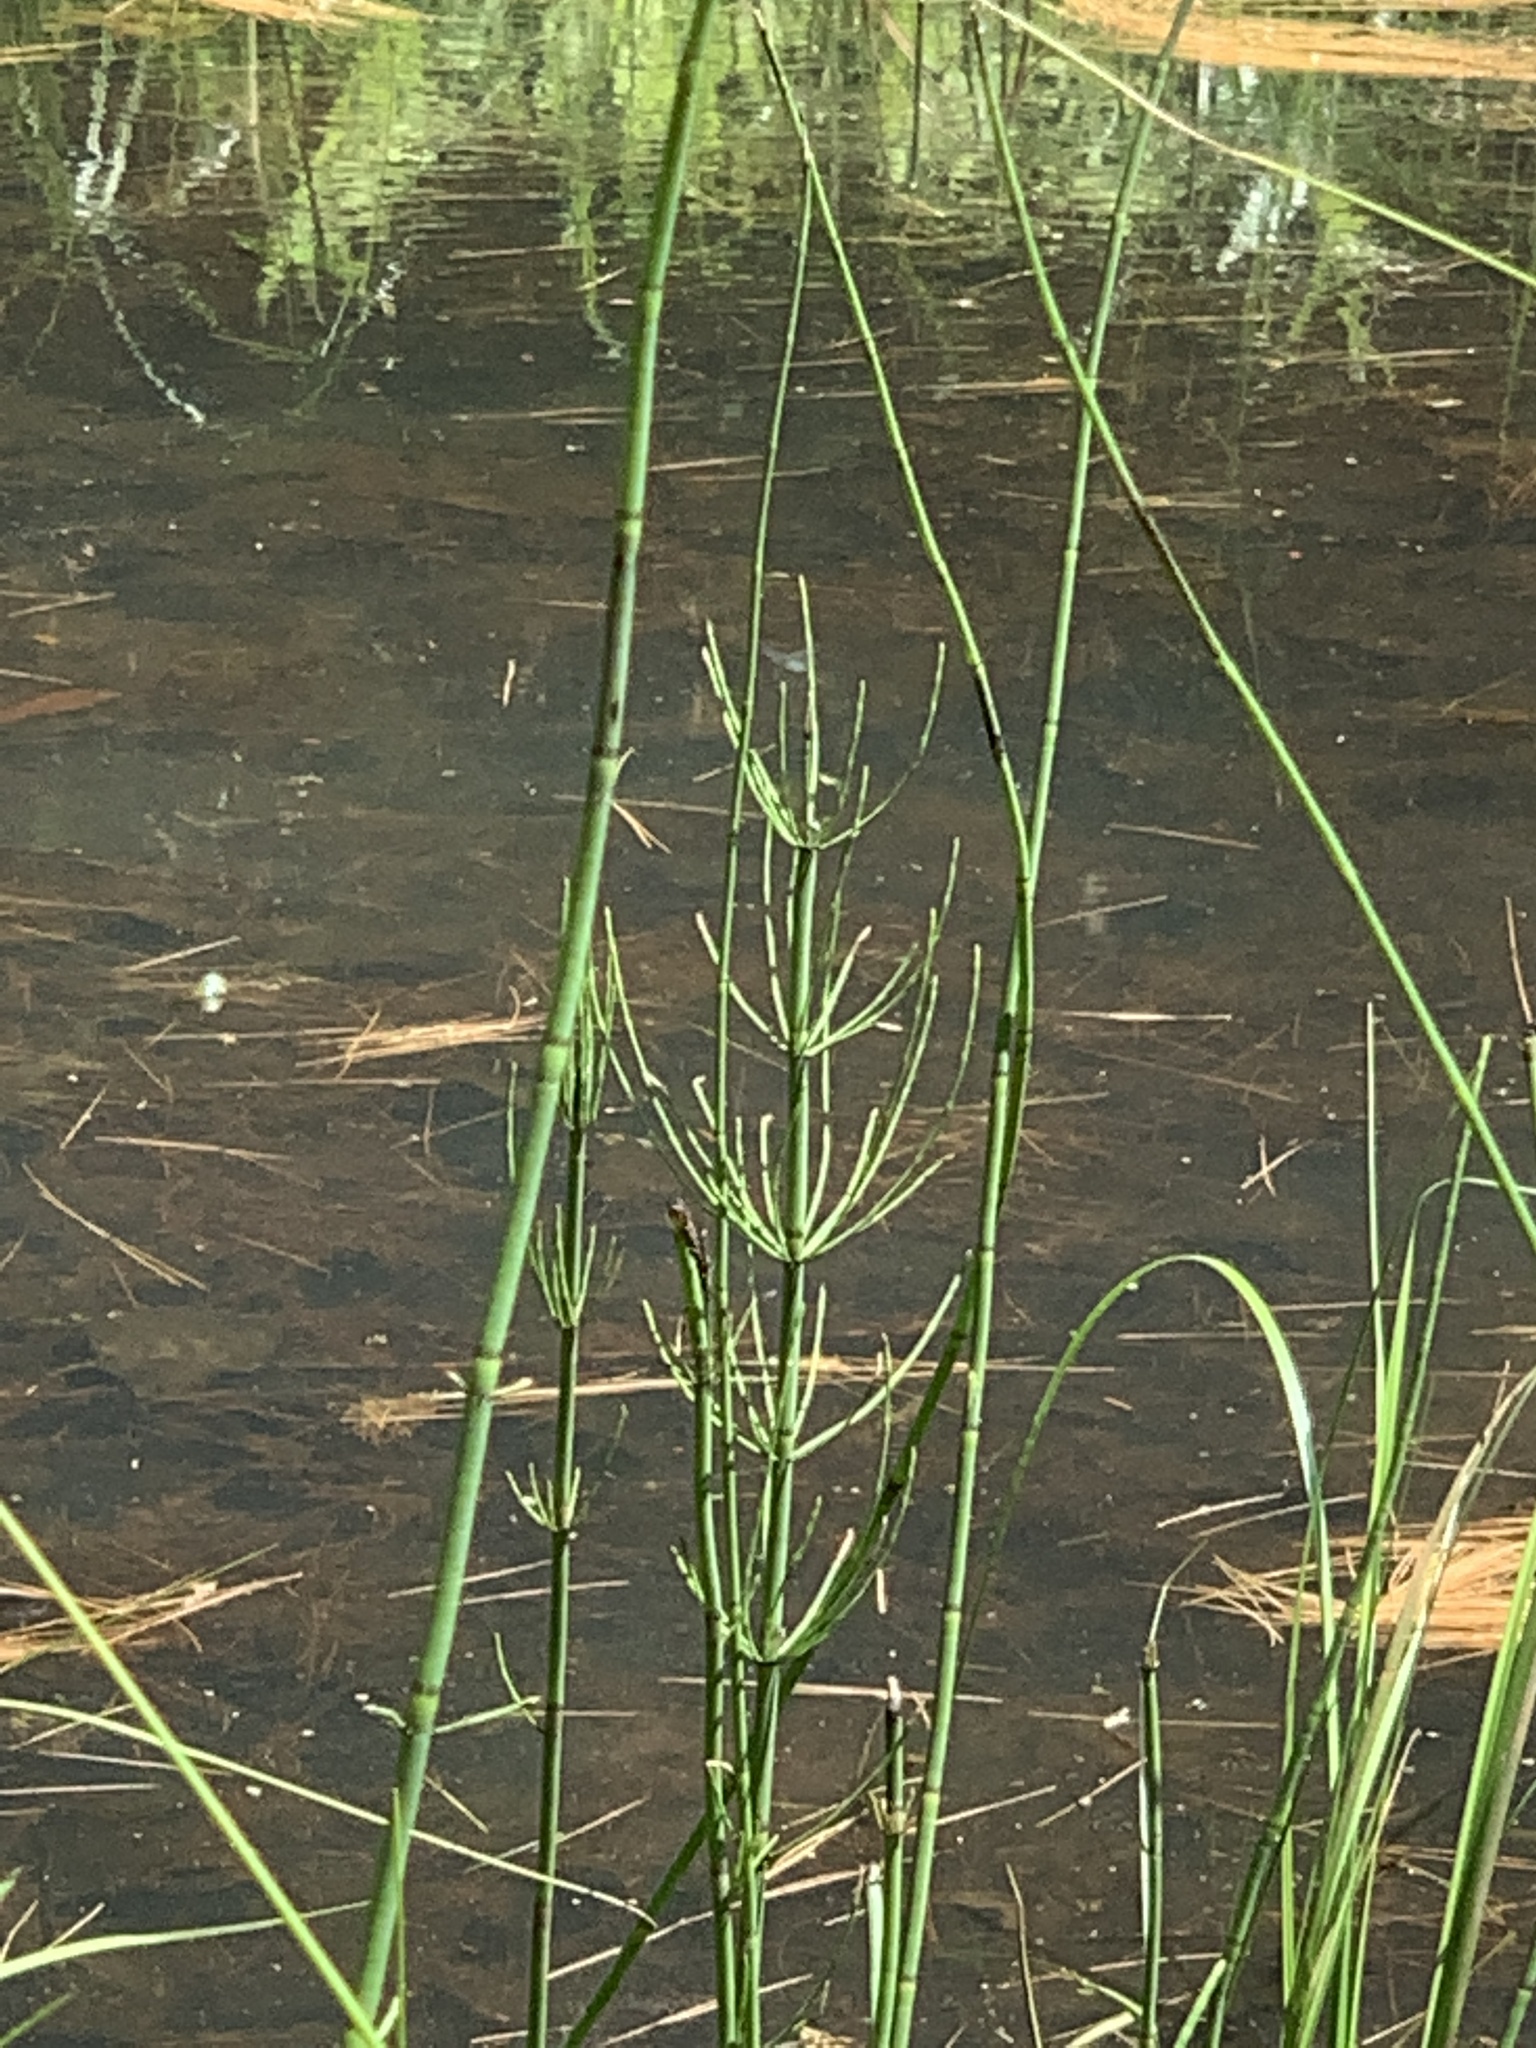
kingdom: Plantae
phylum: Tracheophyta
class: Polypodiopsida
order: Equisetales
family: Equisetaceae
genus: Equisetum
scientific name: Equisetum fluviatile
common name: Water horsetail
